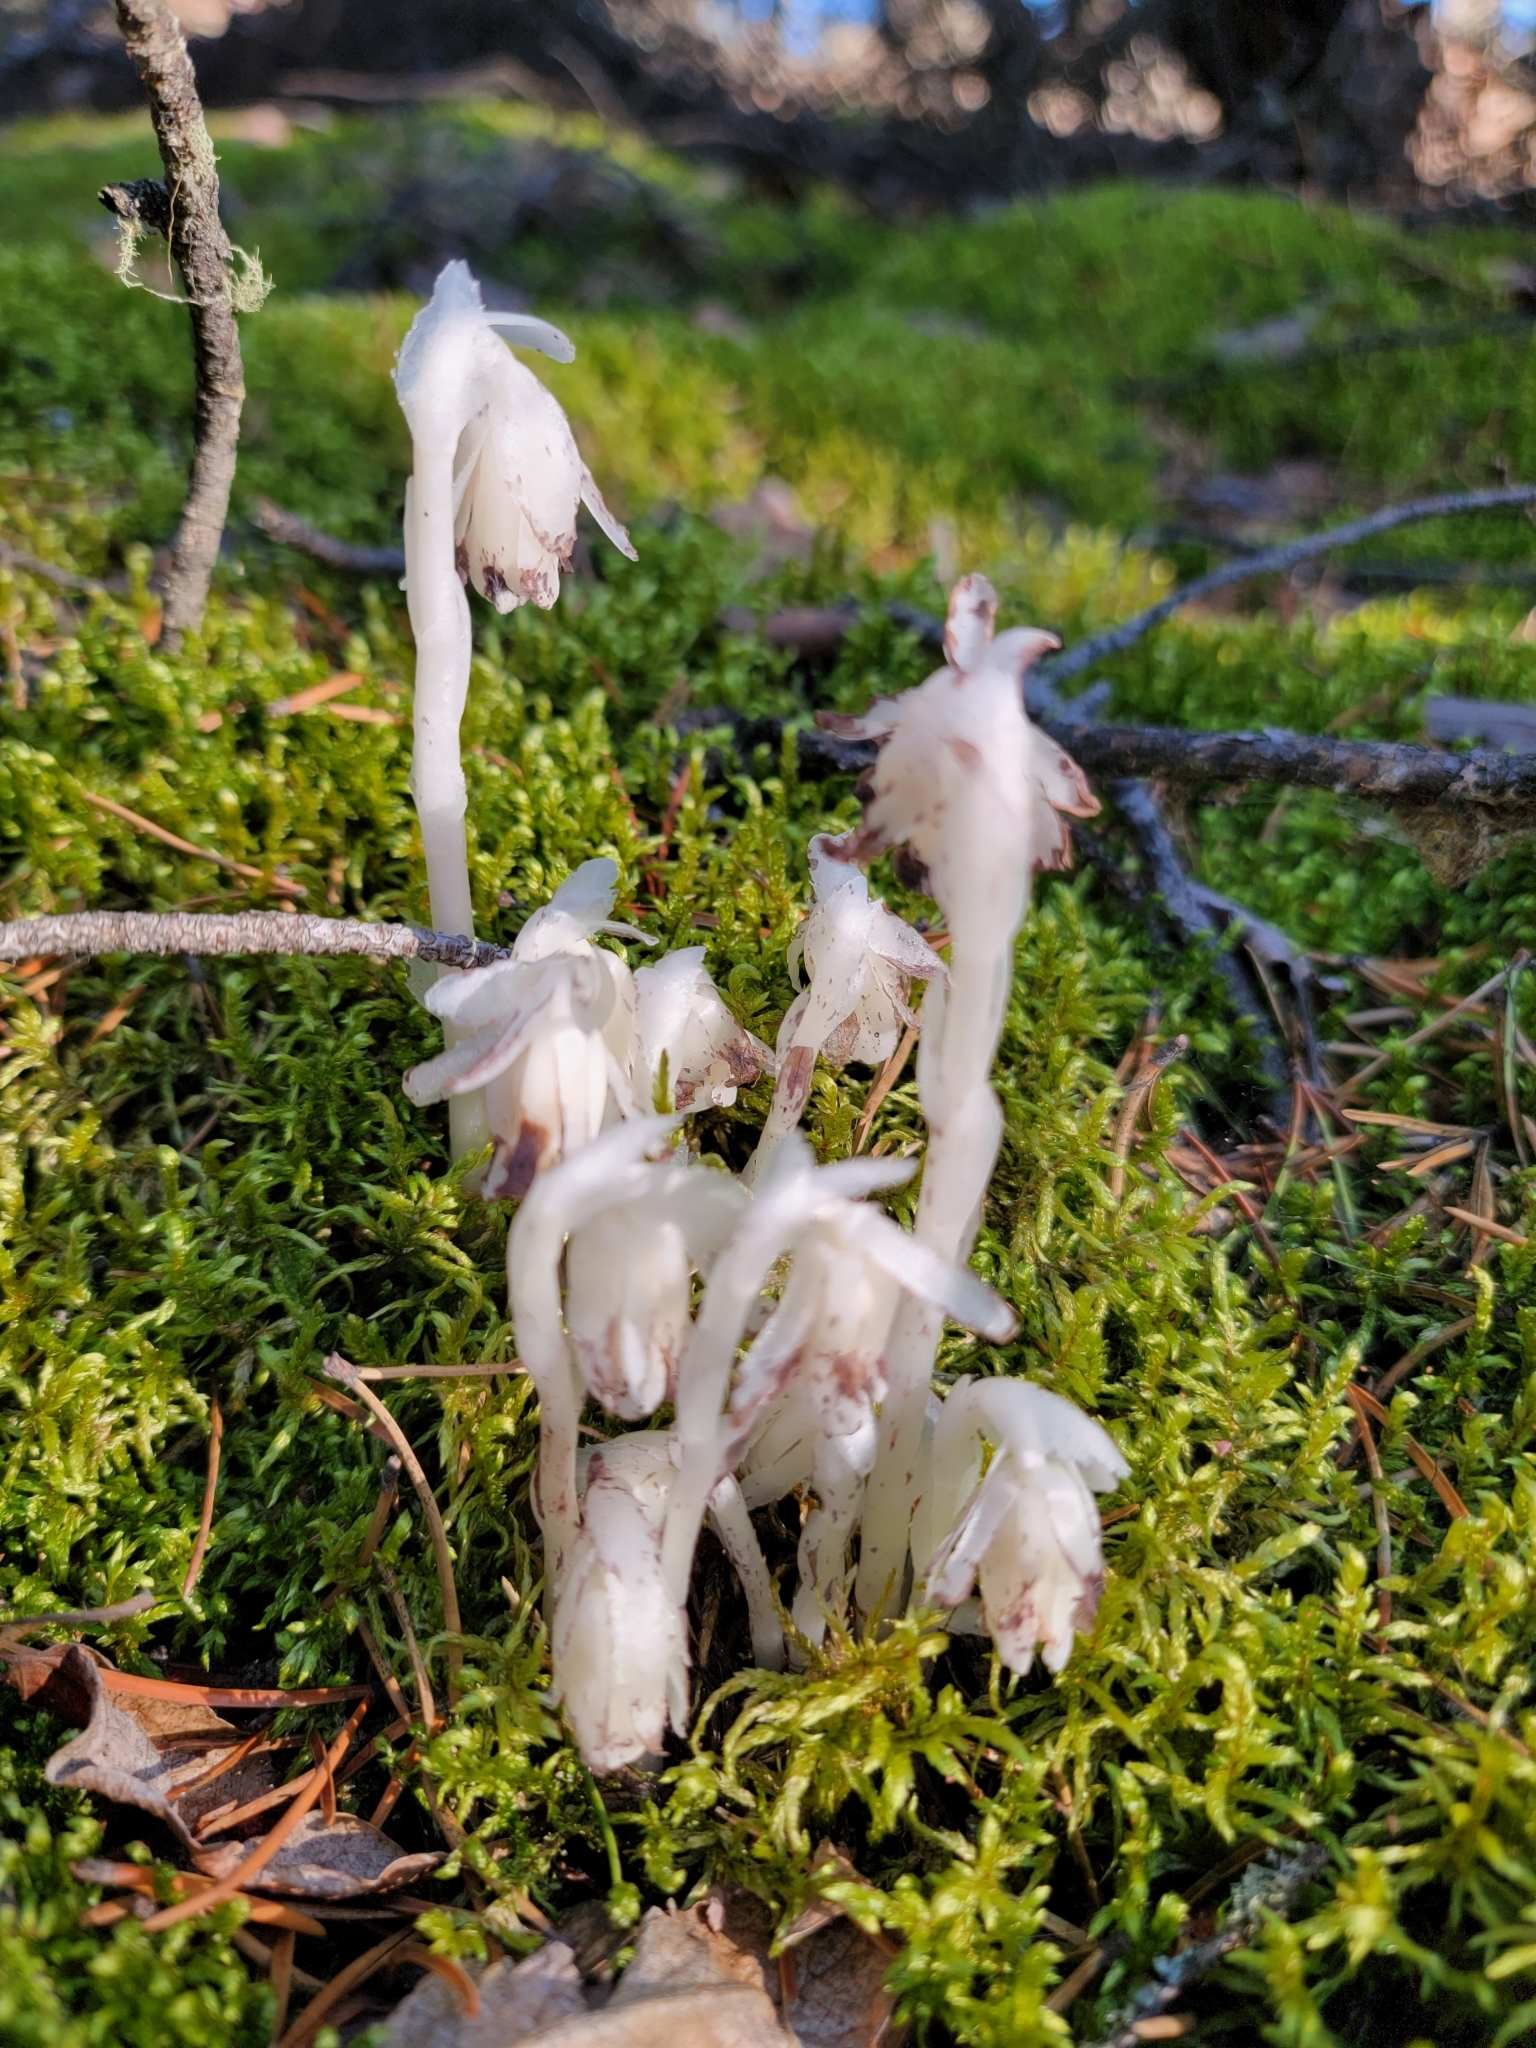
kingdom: Plantae
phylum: Tracheophyta
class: Magnoliopsida
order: Ericales
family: Ericaceae
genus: Monotropa
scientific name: Monotropa uniflora
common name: Convulsion root
